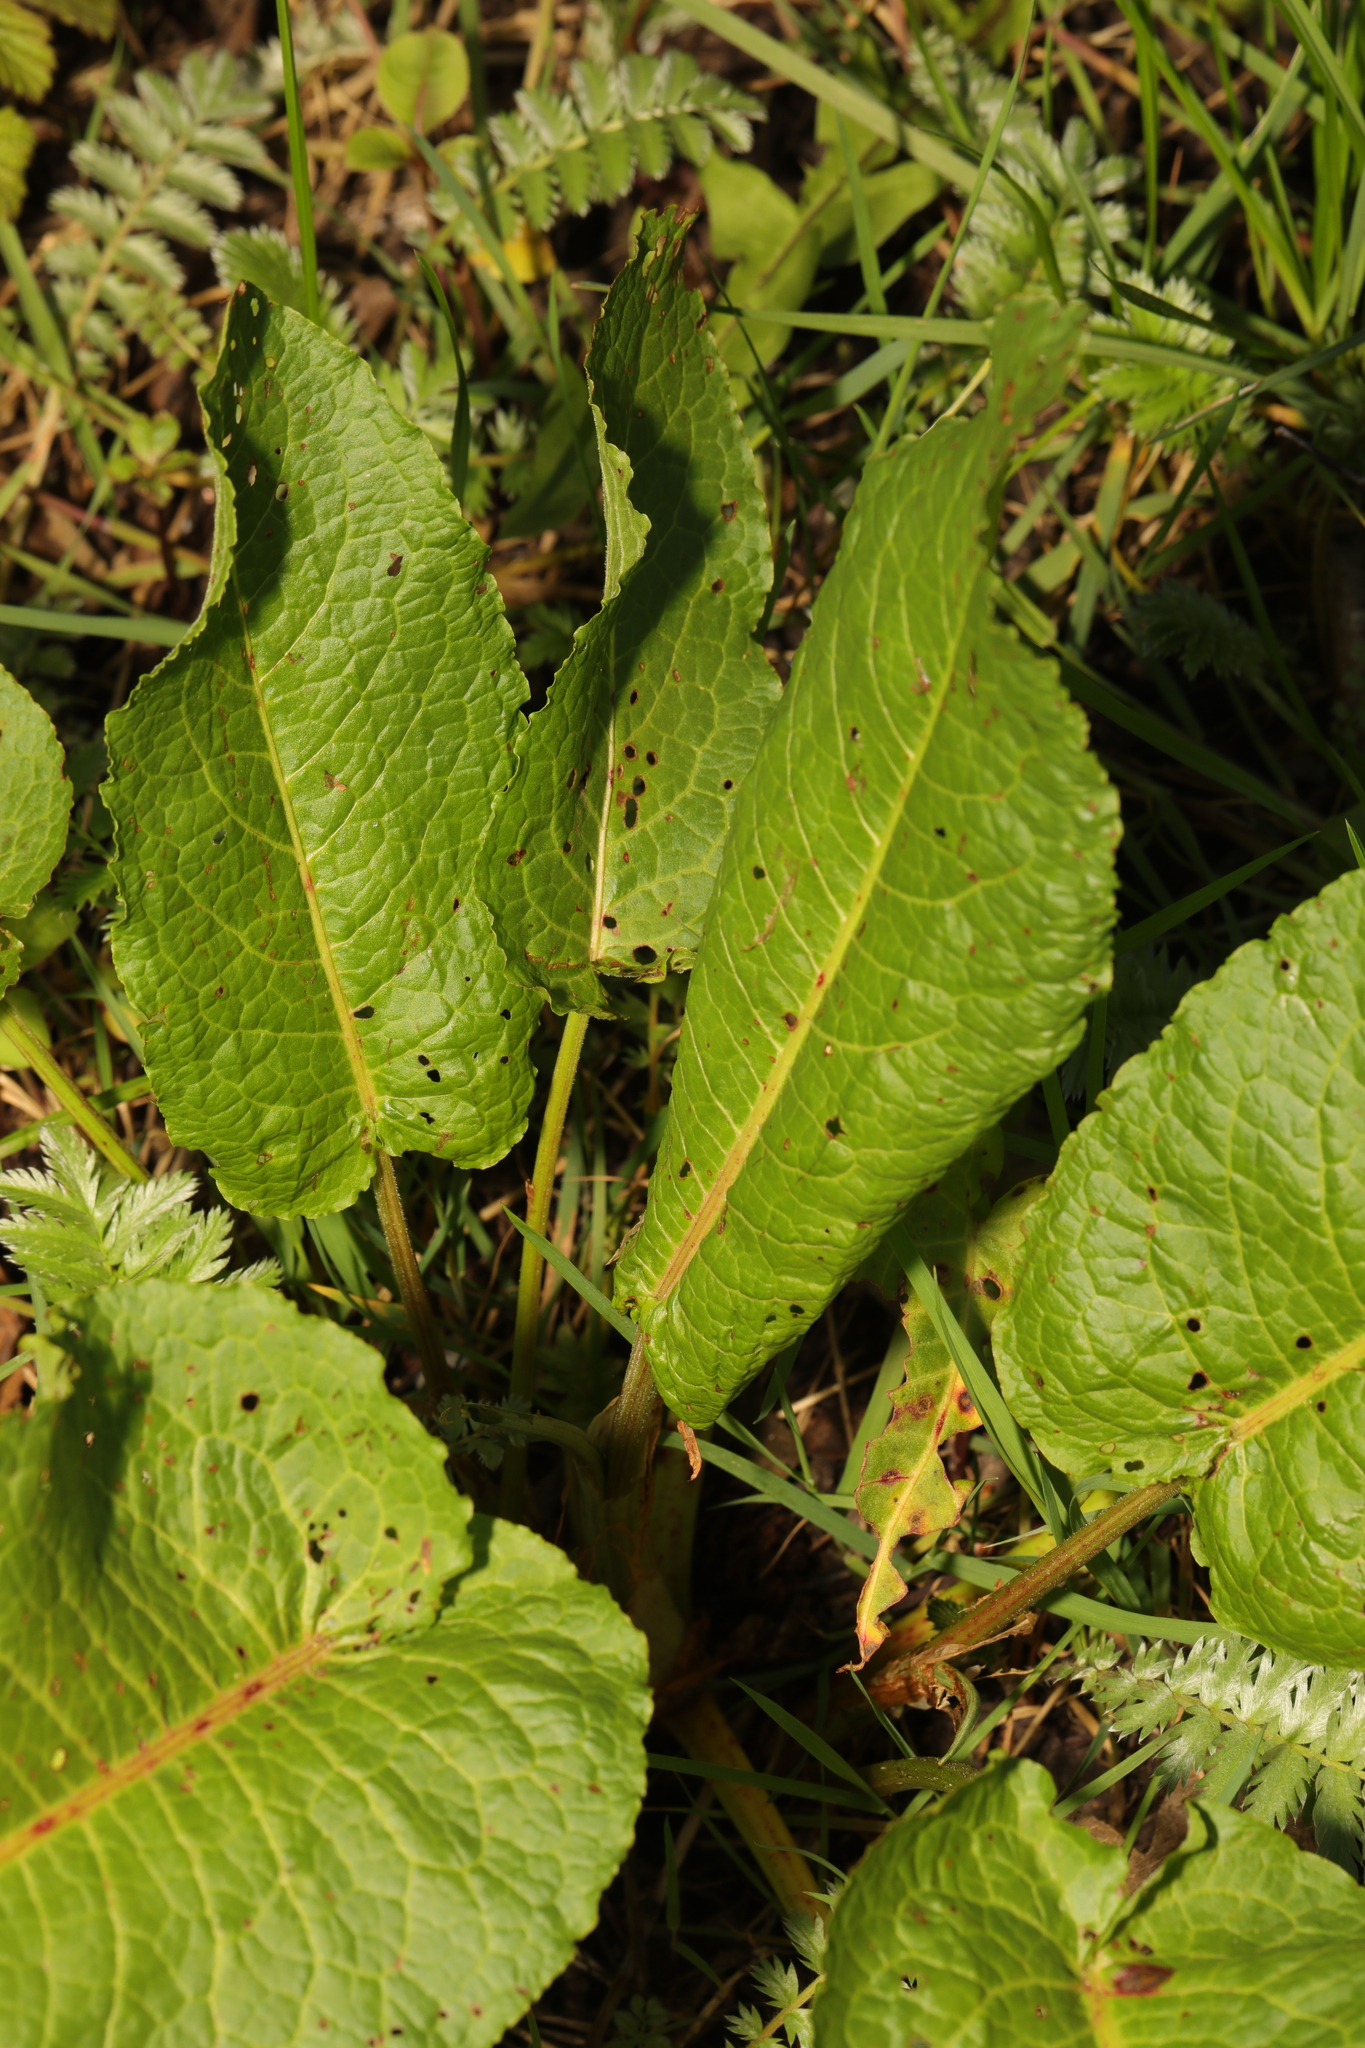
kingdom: Plantae
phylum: Tracheophyta
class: Magnoliopsida
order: Caryophyllales
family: Polygonaceae
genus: Rumex
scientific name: Rumex obtusifolius
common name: Bitter dock
